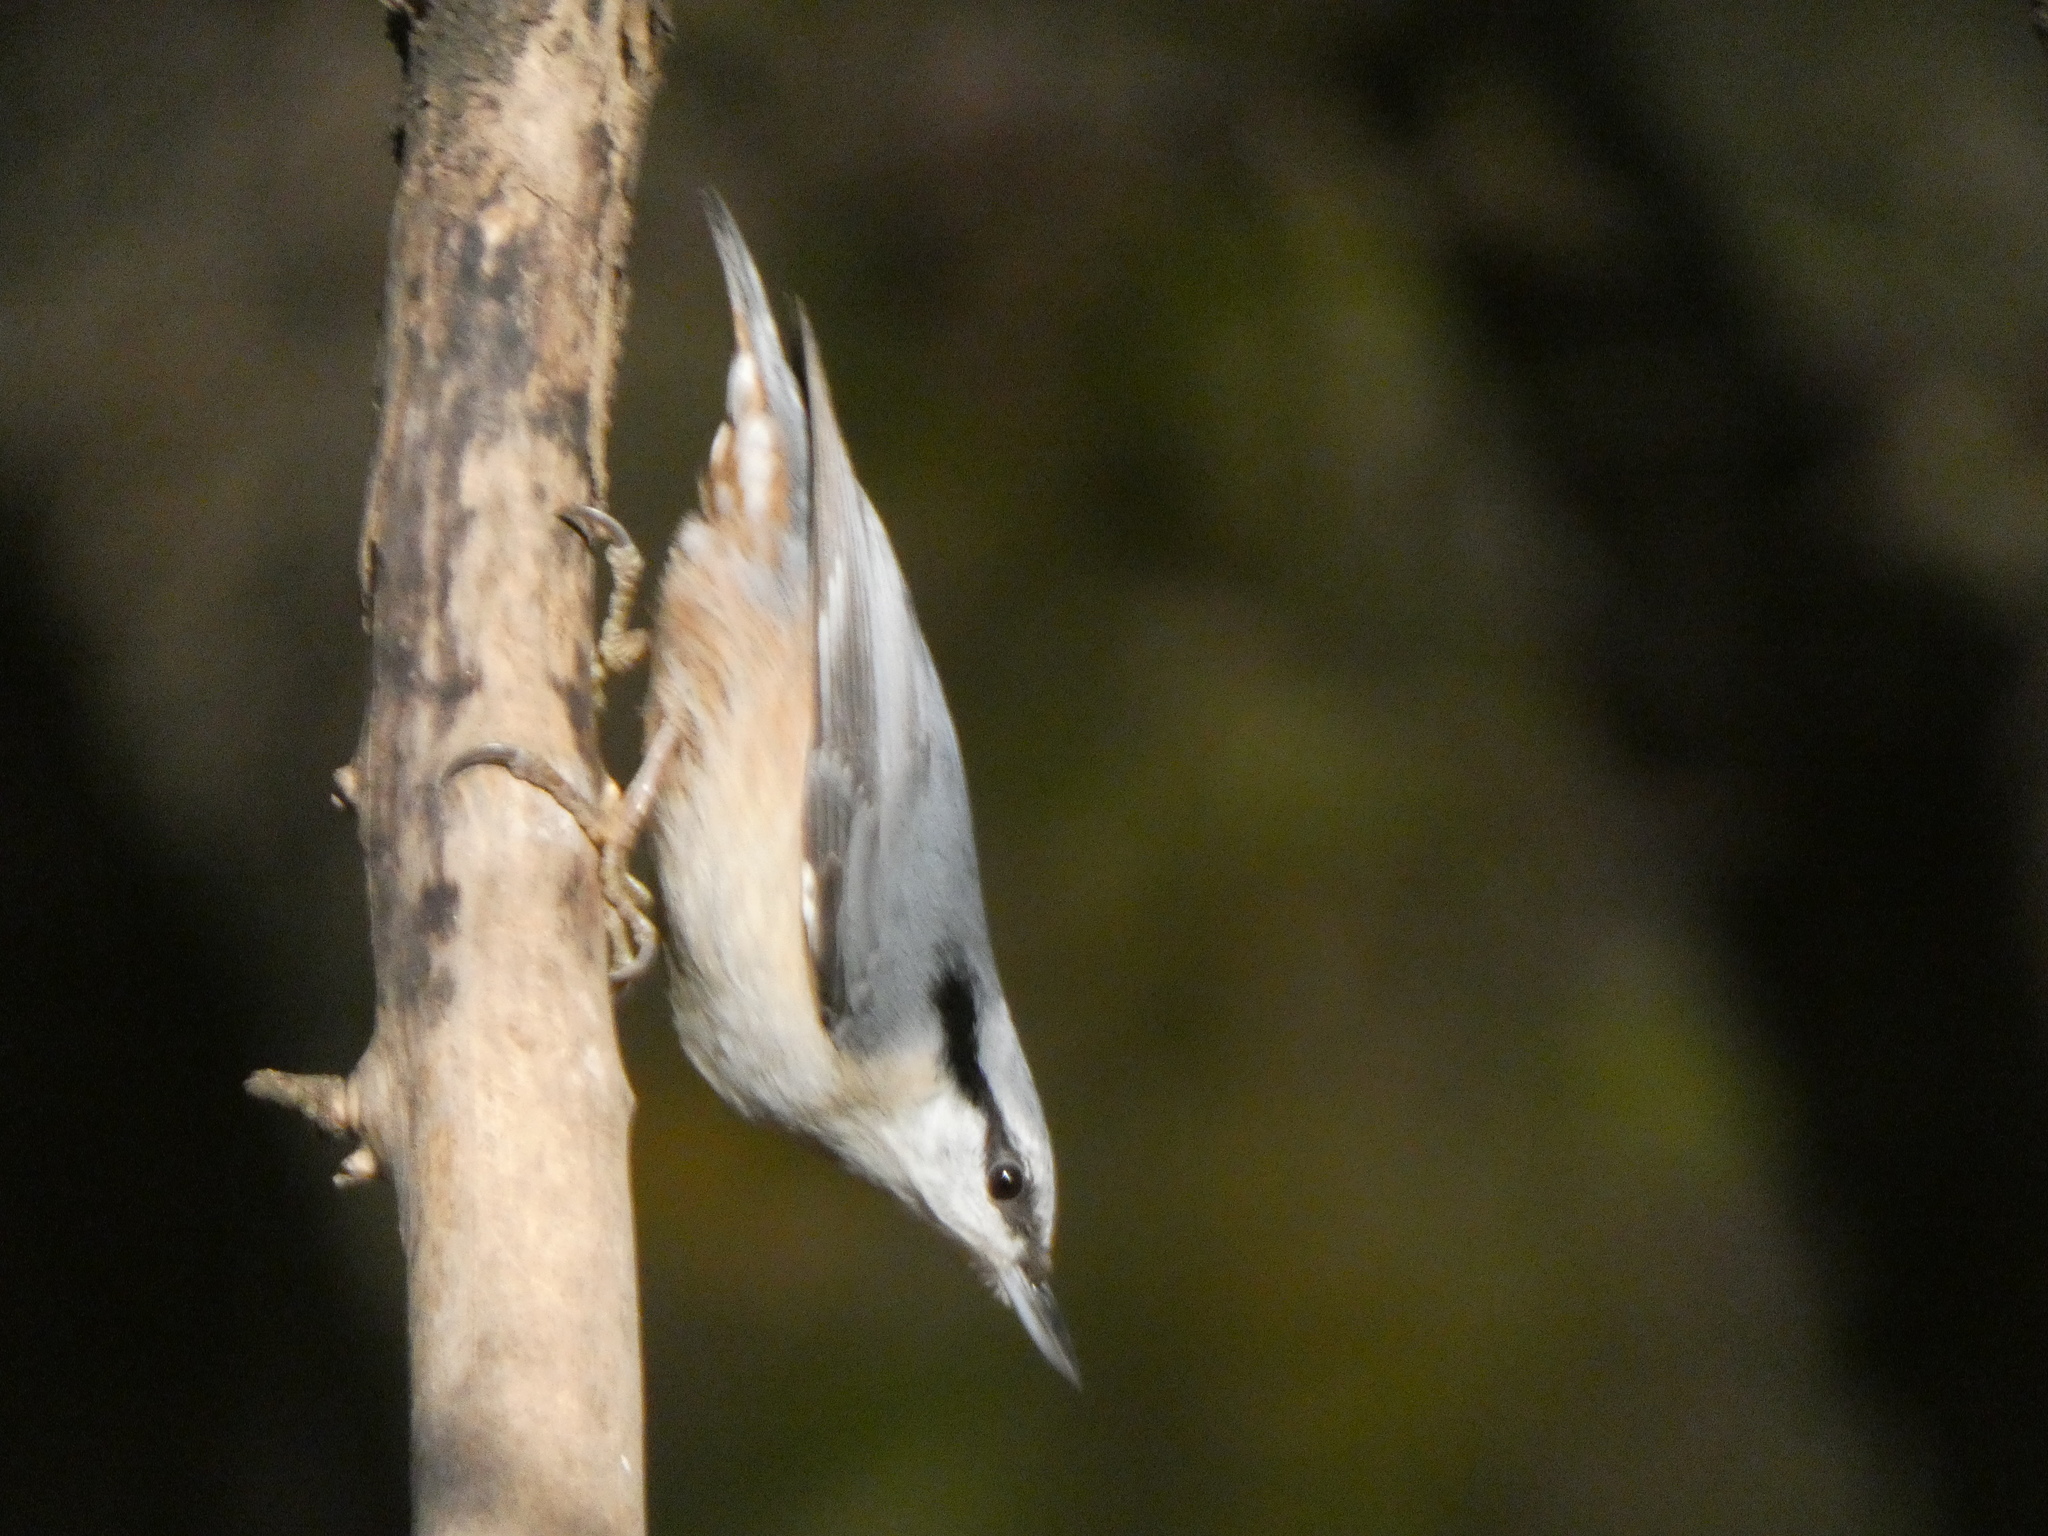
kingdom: Animalia
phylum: Chordata
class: Aves
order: Passeriformes
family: Sittidae
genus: Sitta
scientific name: Sitta europaea
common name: Eurasian nuthatch
